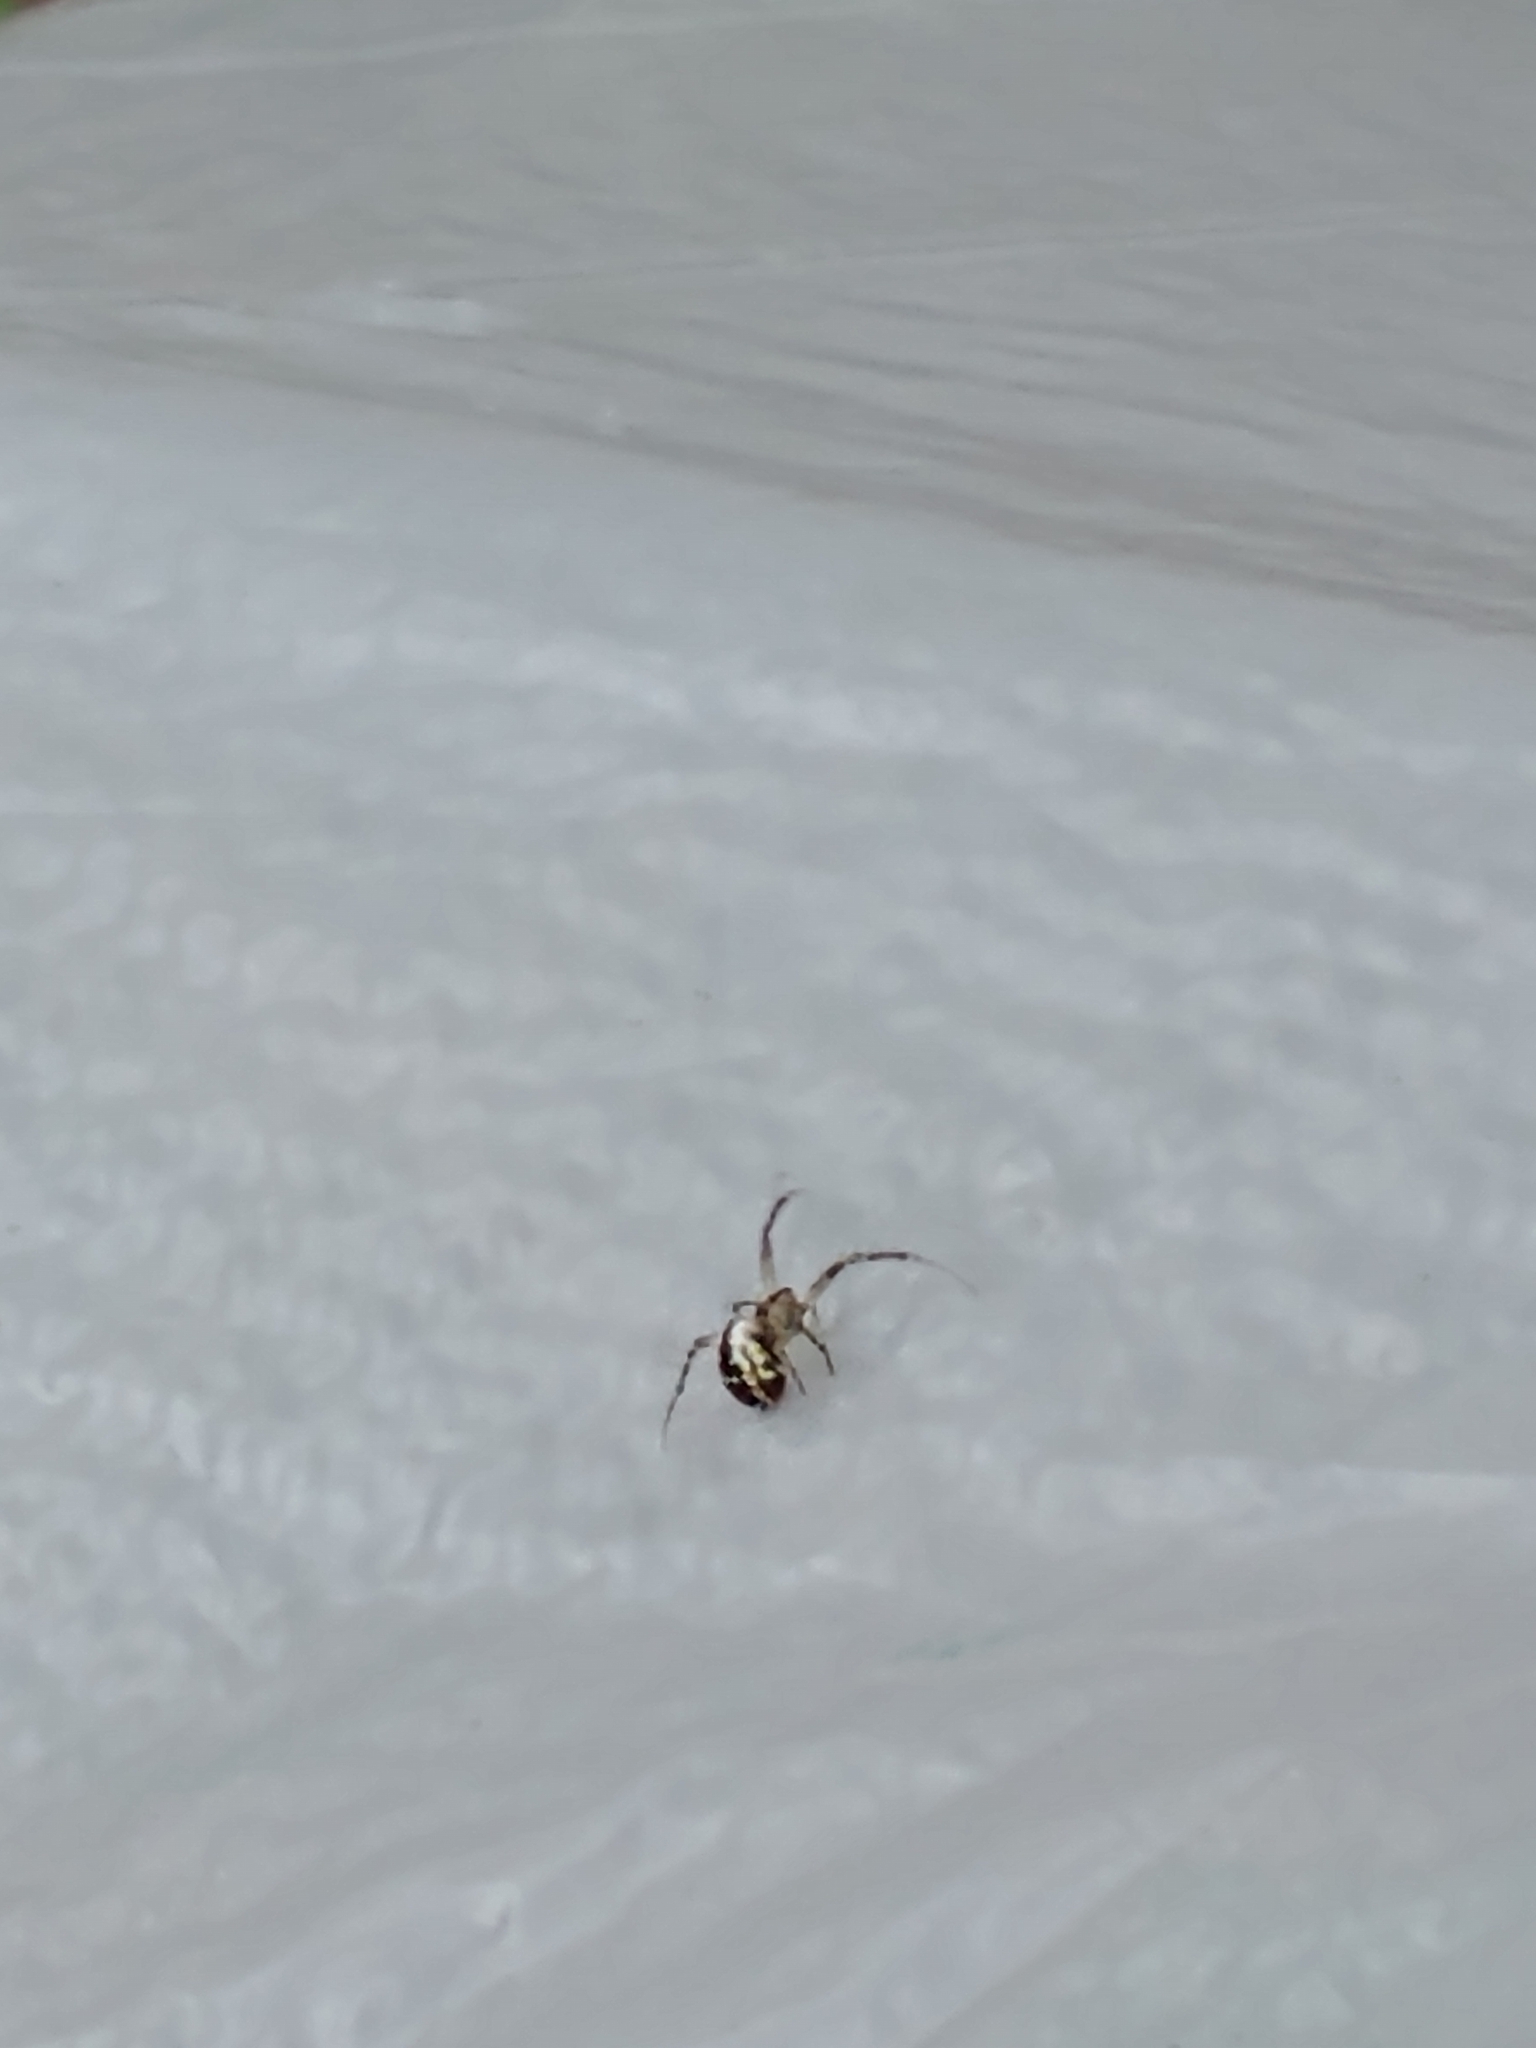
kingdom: Animalia
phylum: Arthropoda
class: Arachnida
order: Araneae
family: Araneidae
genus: Mangora
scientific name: Mangora placida
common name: Tuft-legged orbweaver
